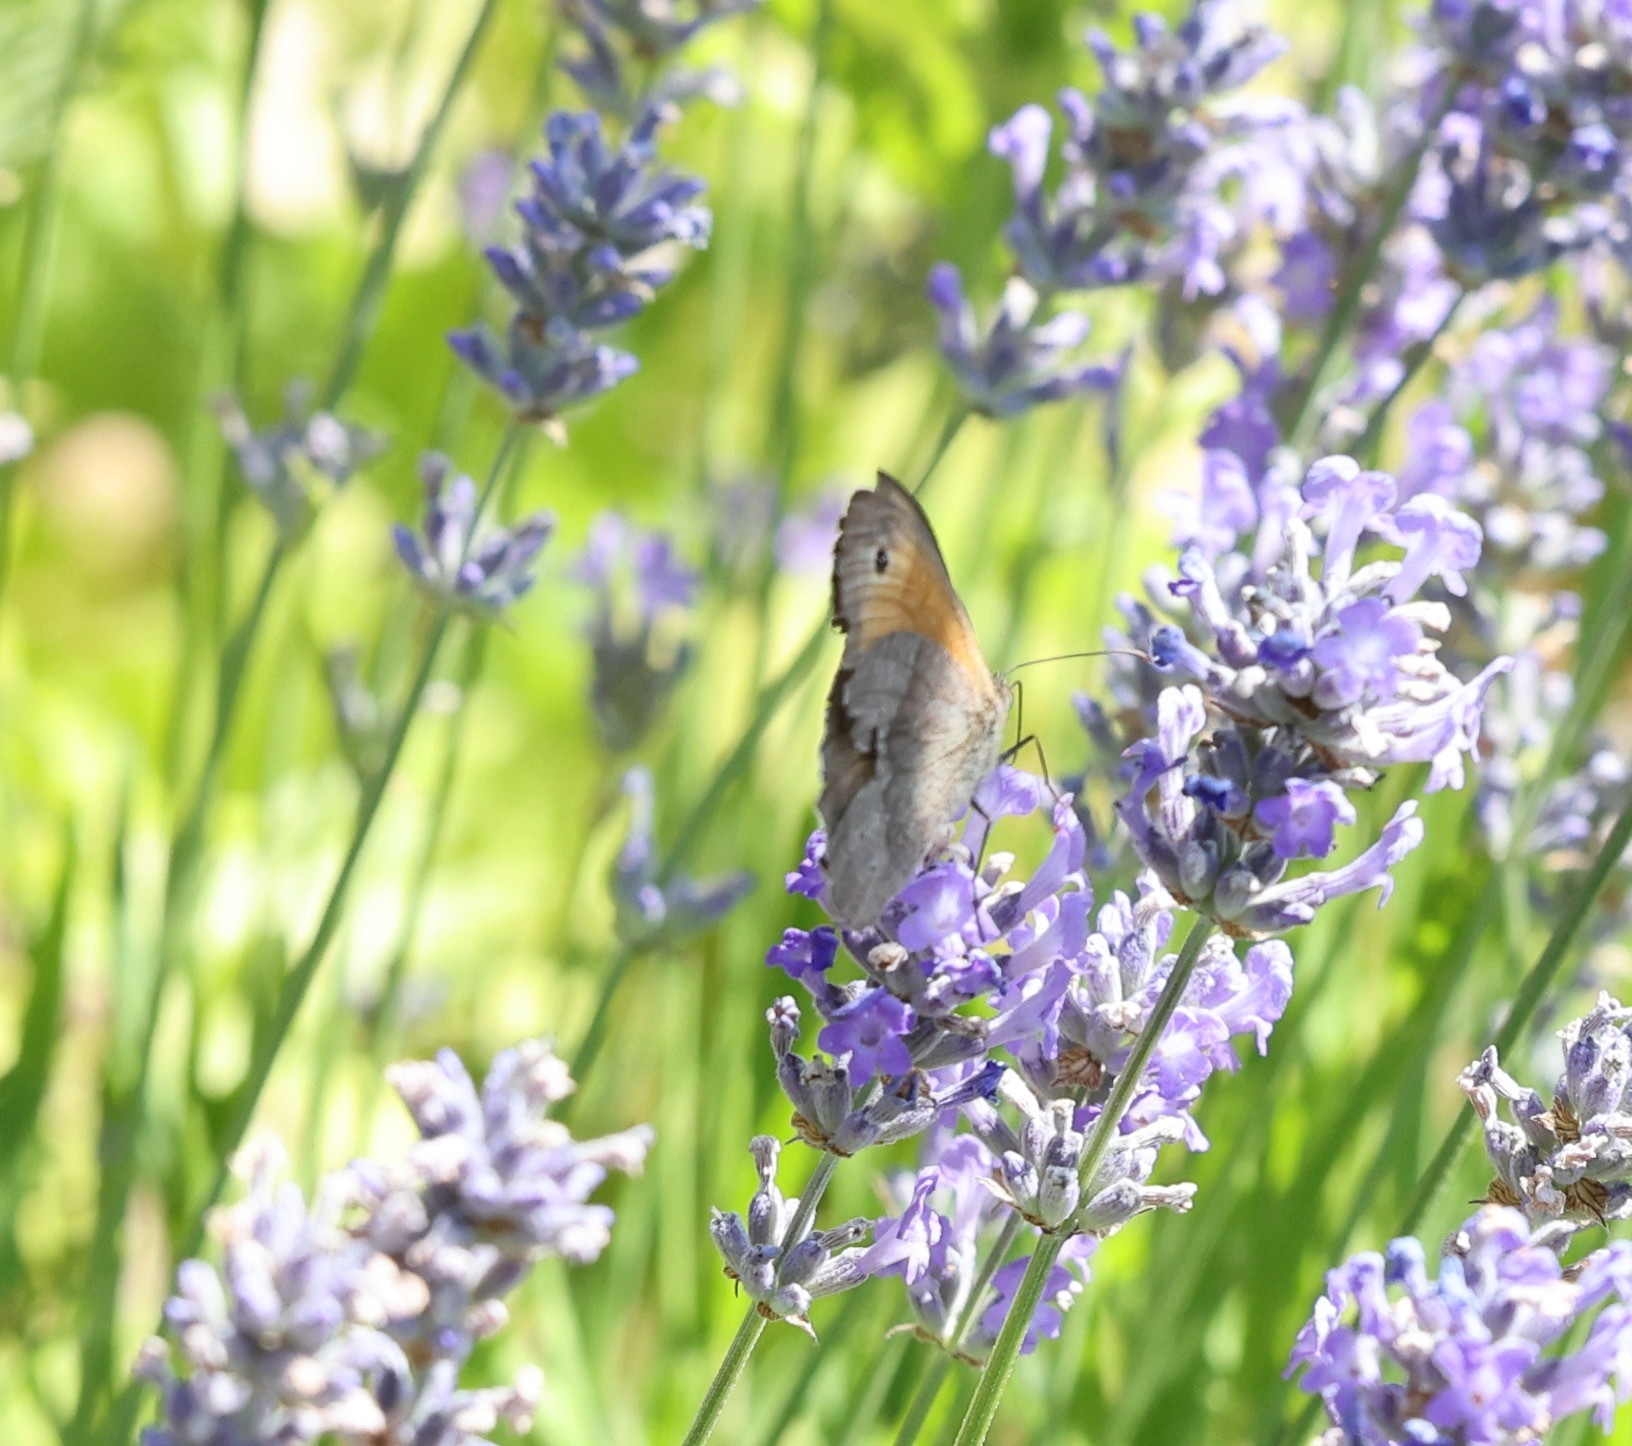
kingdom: Animalia
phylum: Arthropoda
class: Insecta
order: Lepidoptera
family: Nymphalidae
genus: Maniola
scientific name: Maniola jurtina
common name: Meadow brown
